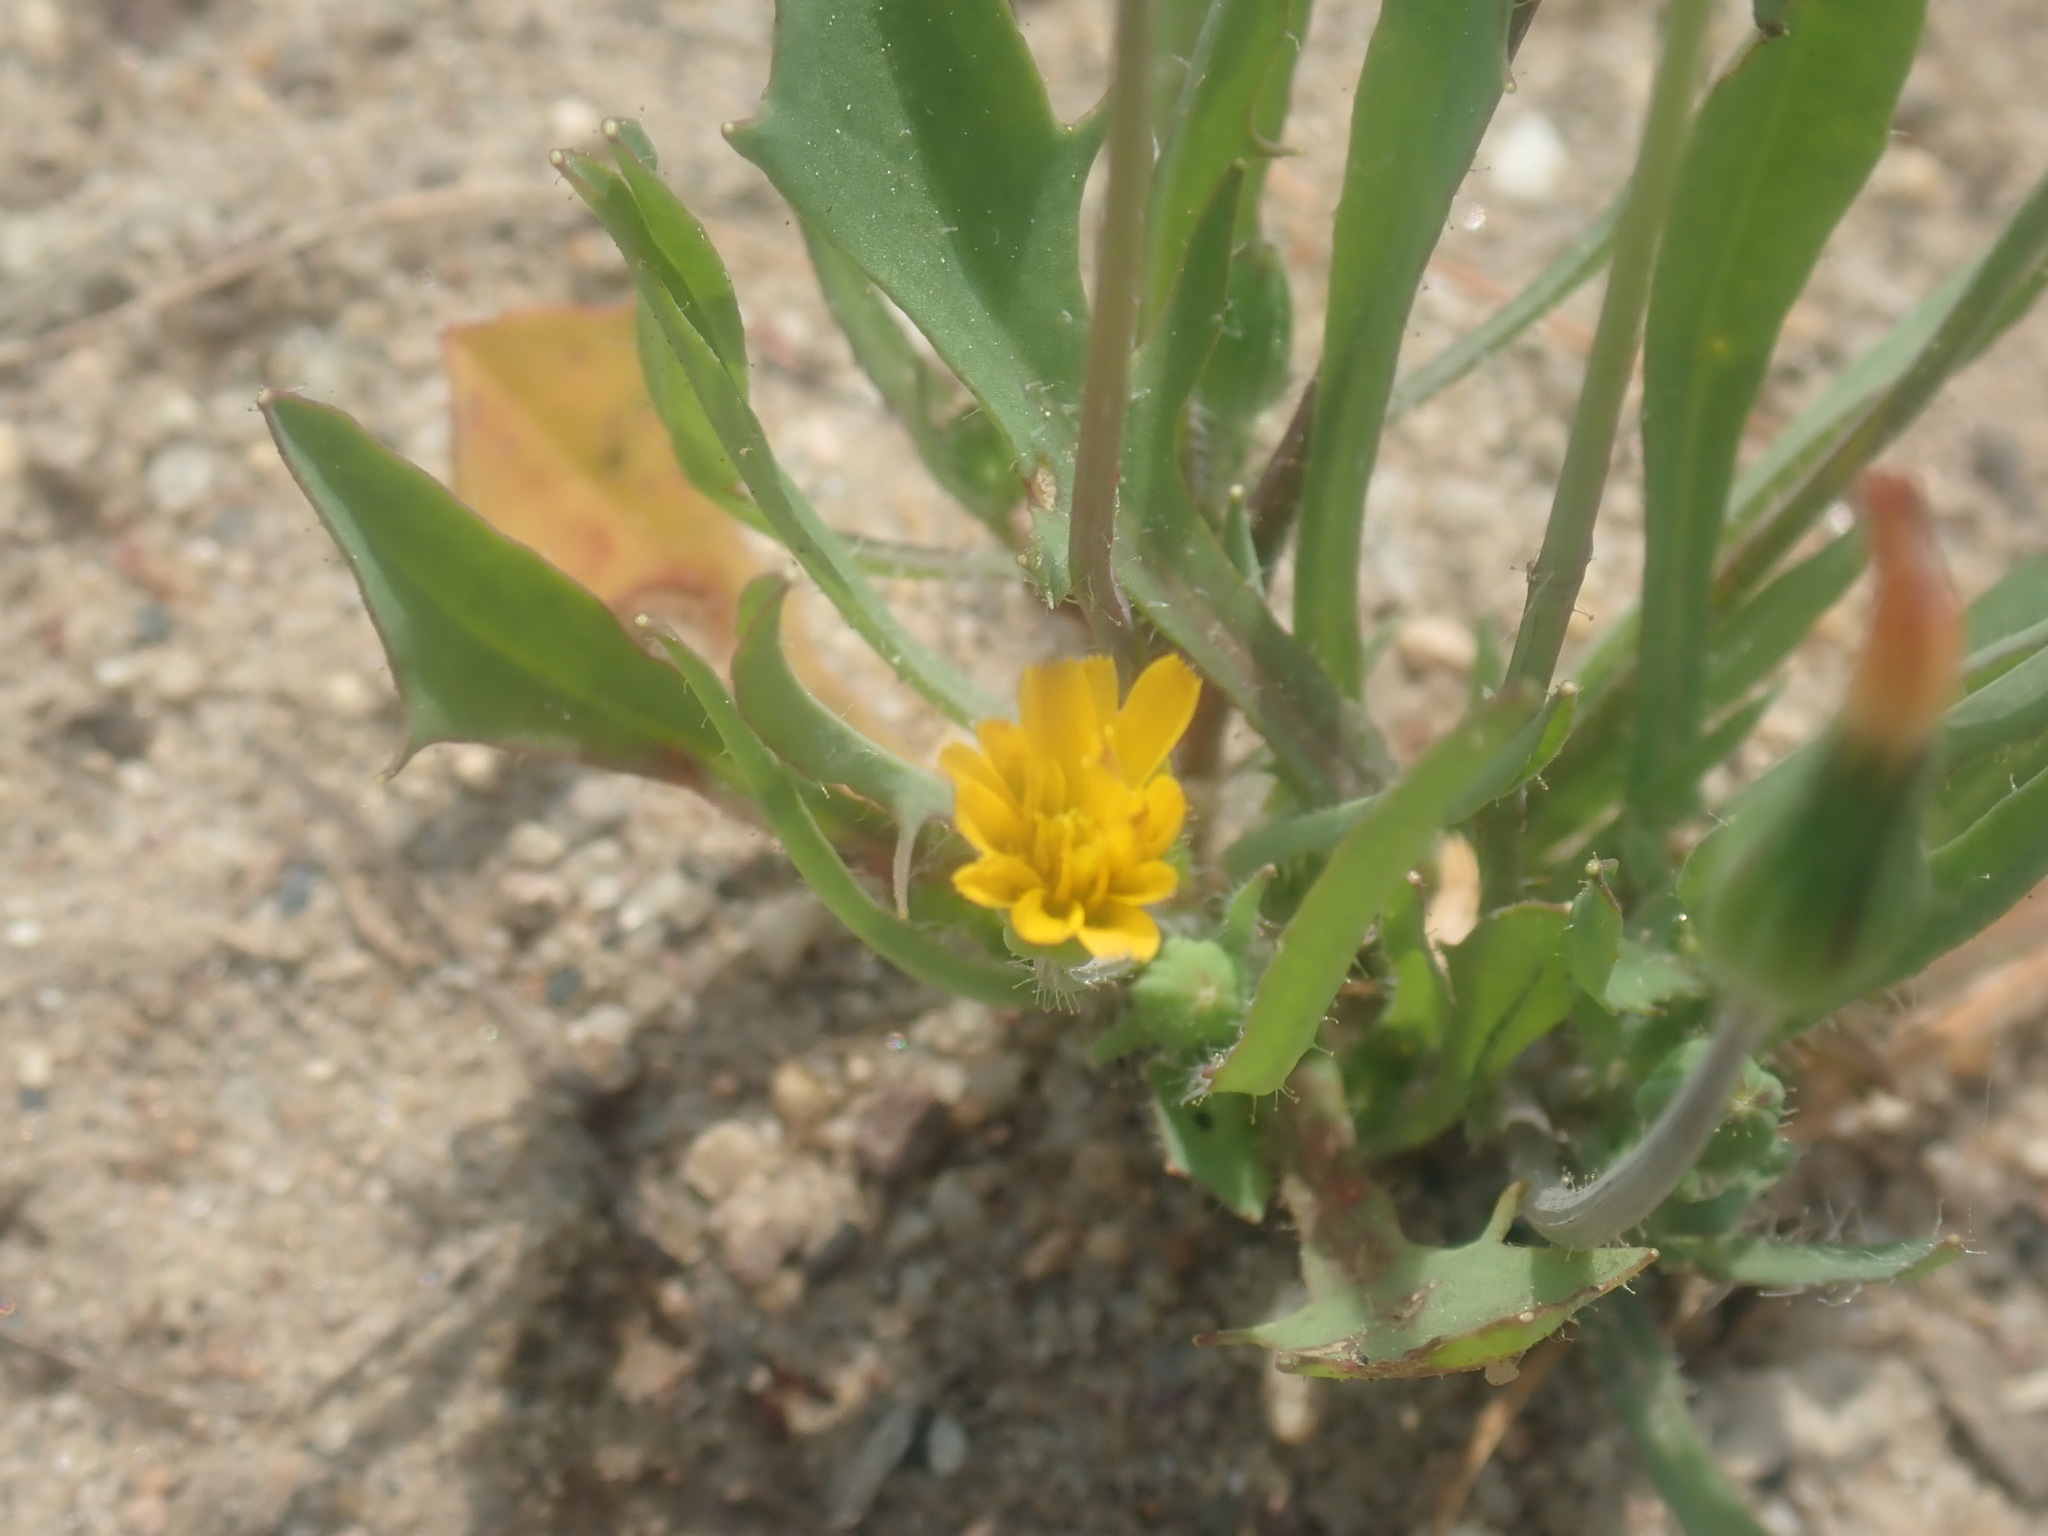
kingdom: Plantae
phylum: Tracheophyta
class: Magnoliopsida
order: Asterales
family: Asteraceae
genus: Krigia
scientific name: Krigia virginica
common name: Virginia dwarf-dandelion
